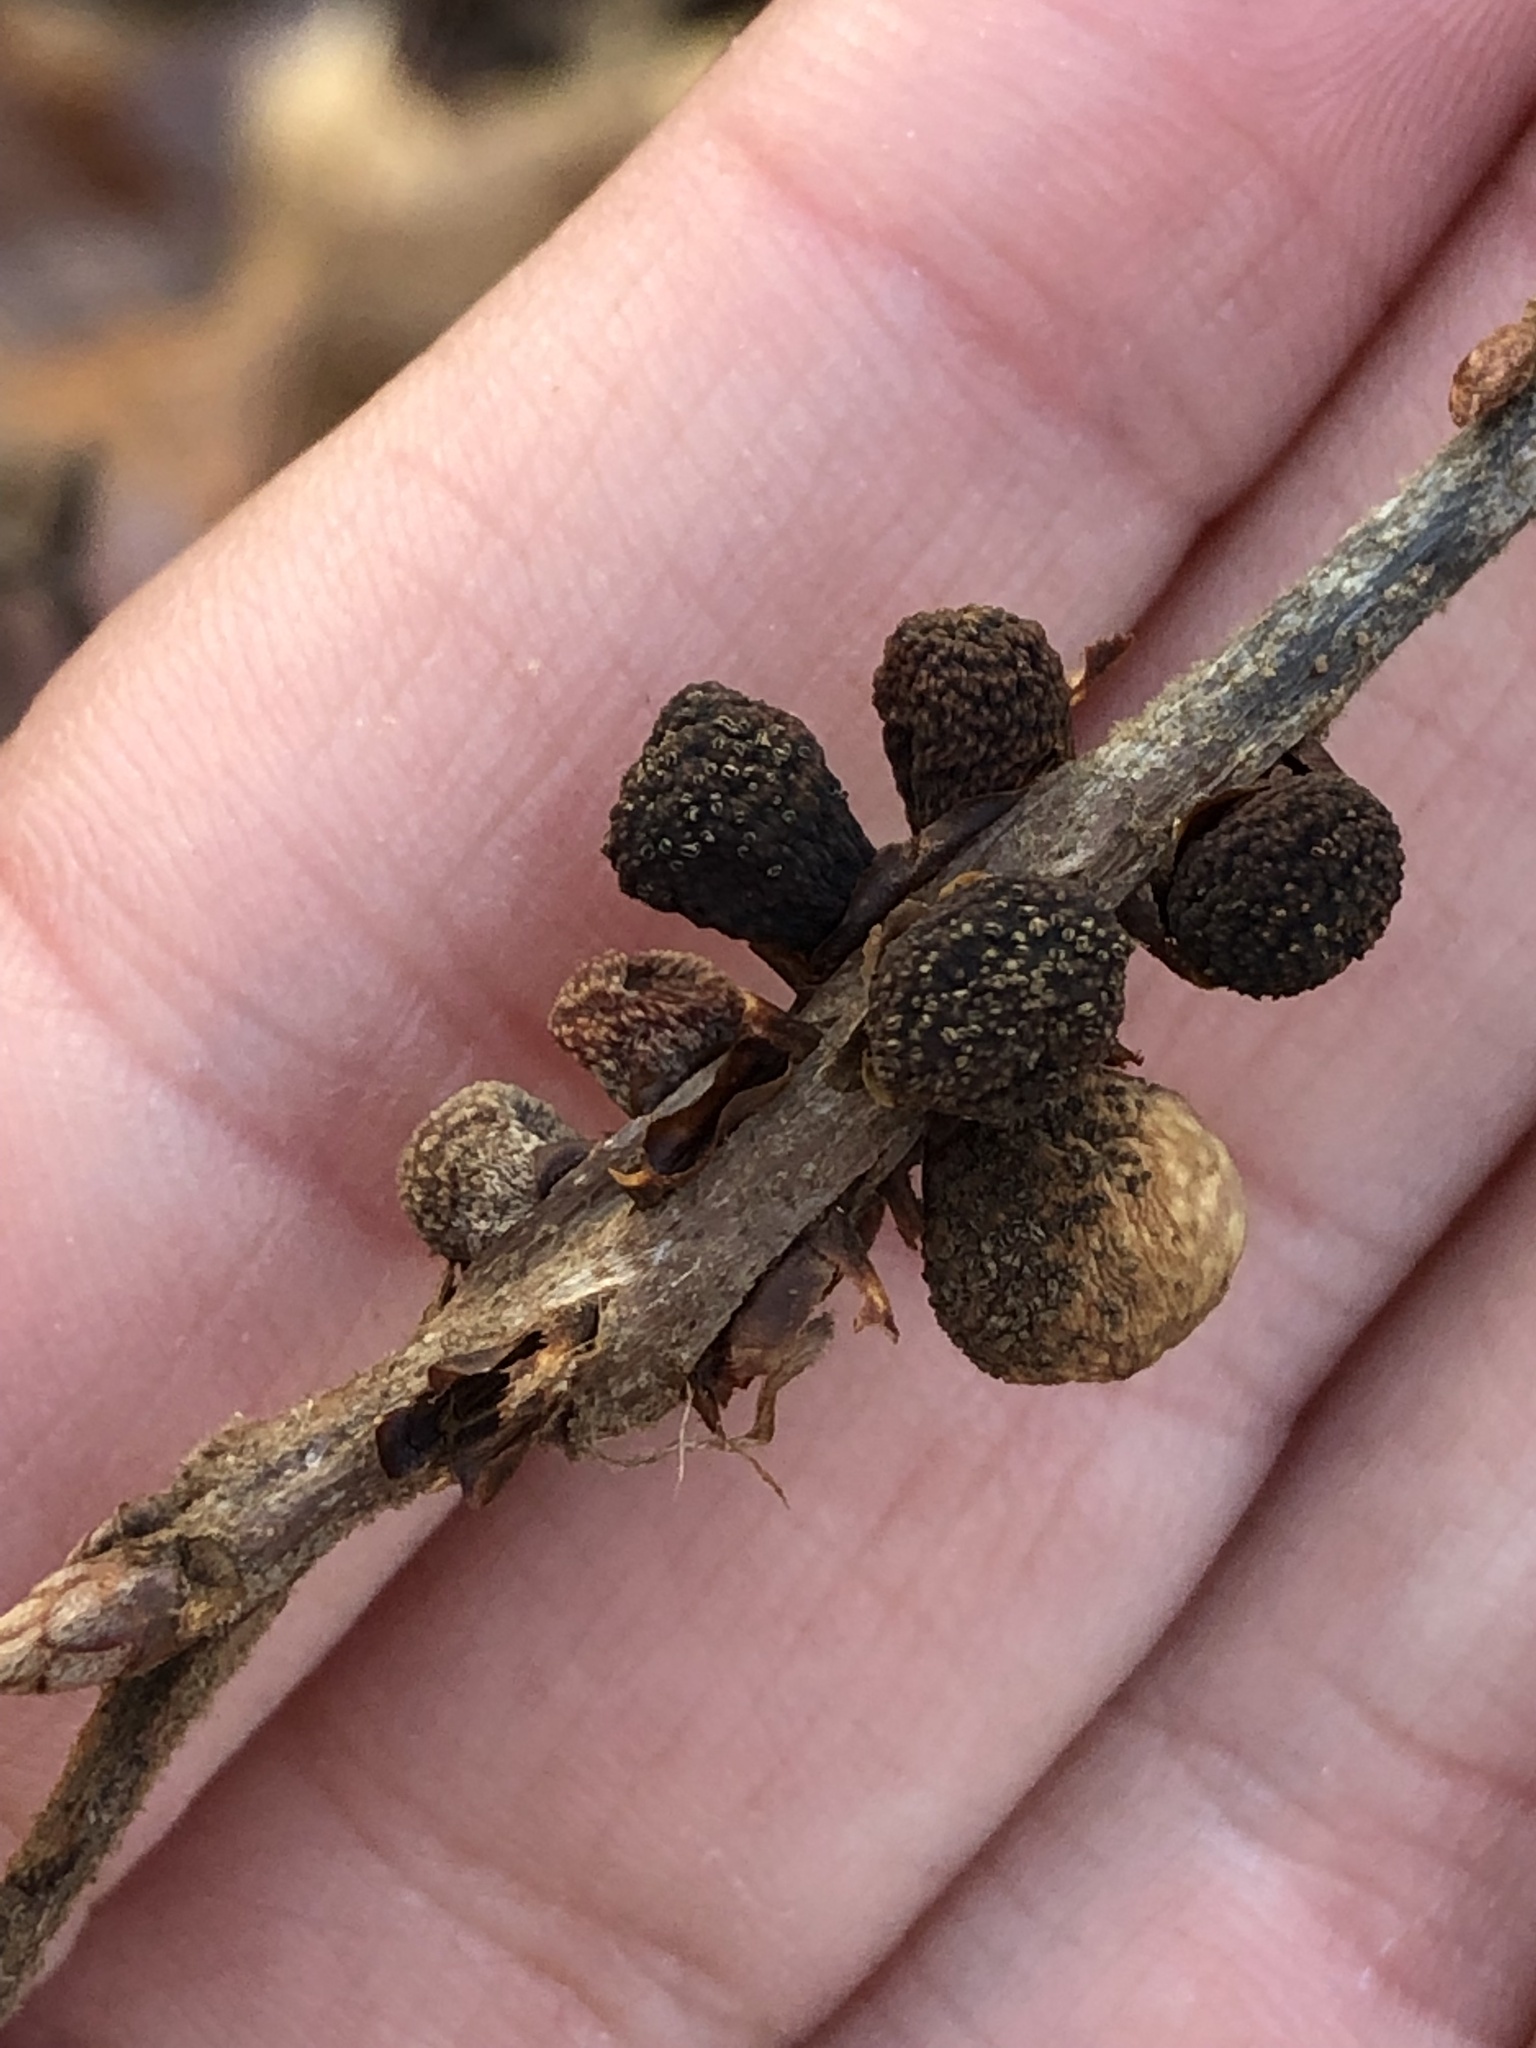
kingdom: Animalia
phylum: Arthropoda
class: Insecta
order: Hymenoptera
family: Cynipidae
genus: Kokkocynips
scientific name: Kokkocynips imbricariae
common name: Banded bullet gall wasp
